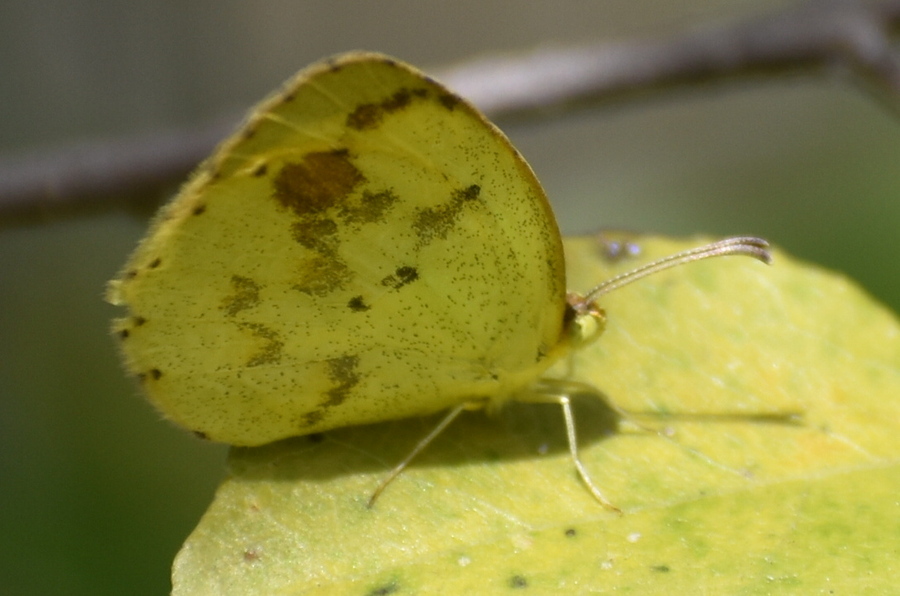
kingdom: Animalia
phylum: Arthropoda
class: Insecta
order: Lepidoptera
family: Pieridae
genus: Pyrisitia
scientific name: Pyrisitia nise
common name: Mimosa yellow
